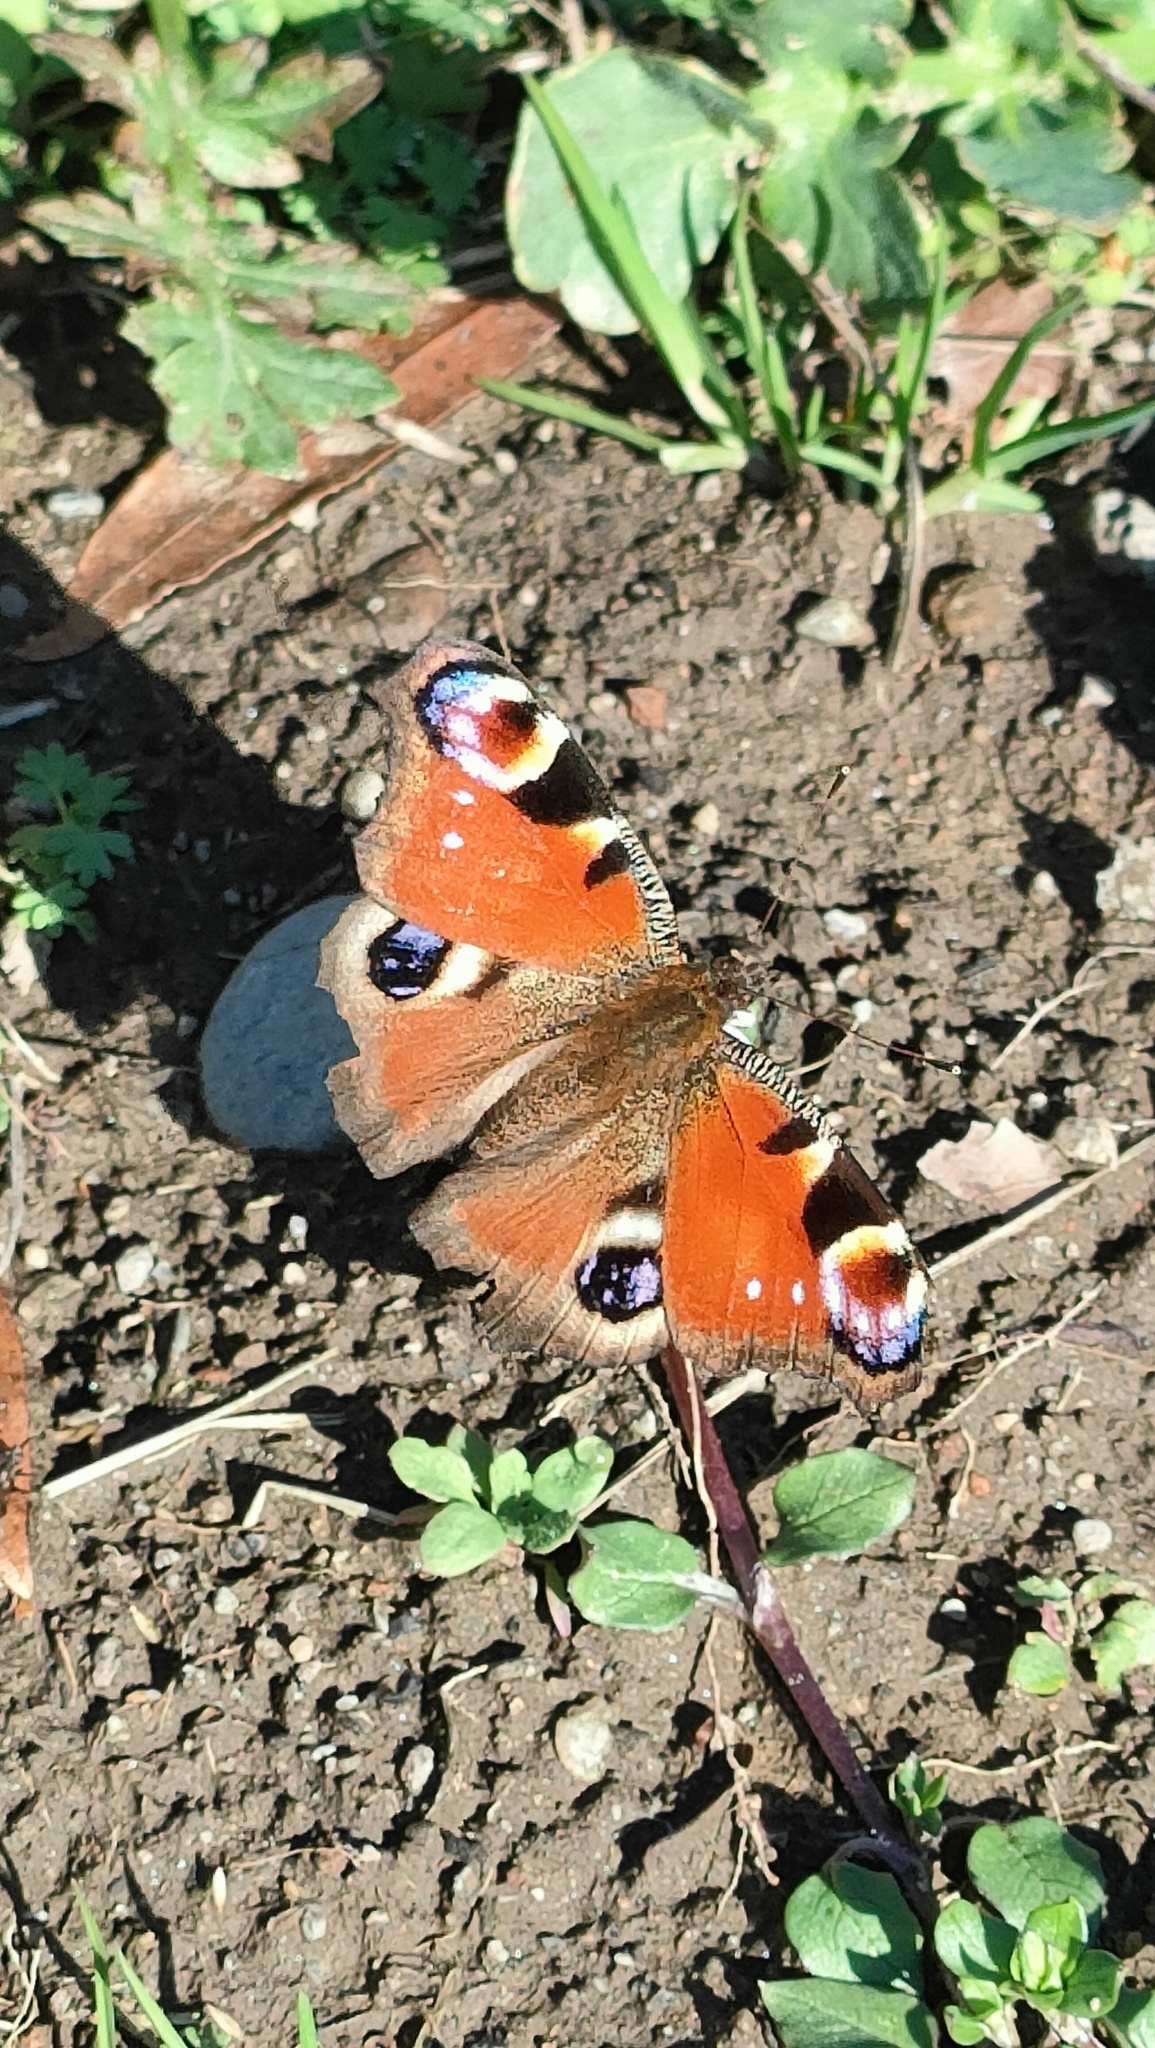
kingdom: Animalia
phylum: Arthropoda
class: Insecta
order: Lepidoptera
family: Nymphalidae
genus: Aglais
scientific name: Aglais io
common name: Peacock
